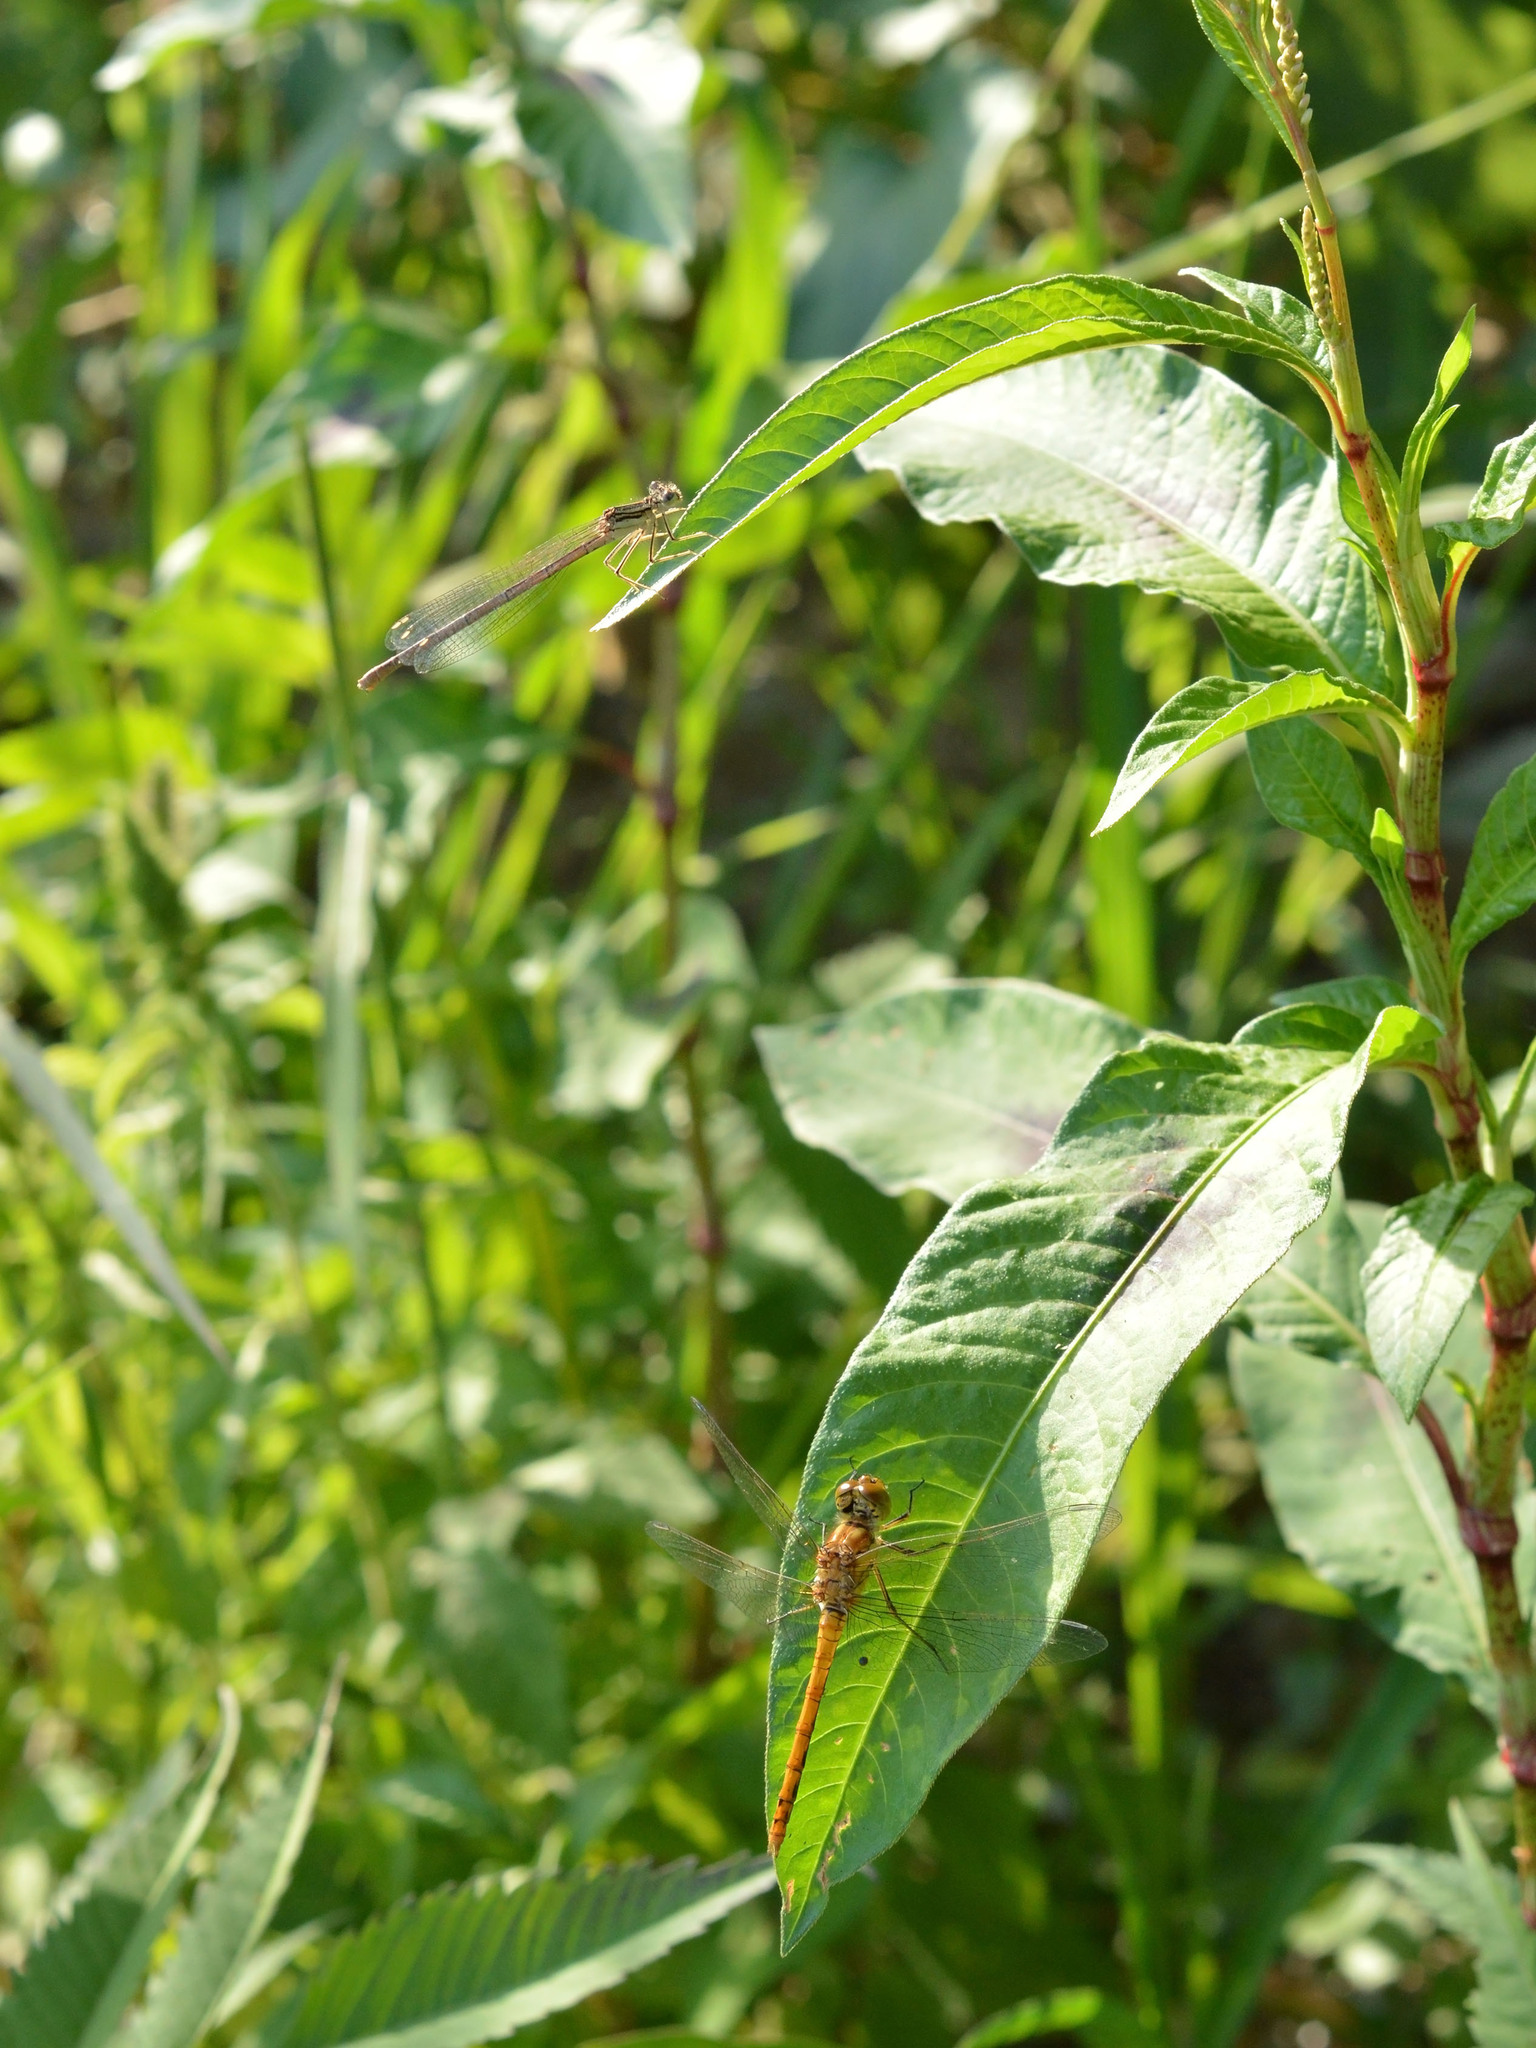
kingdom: Animalia
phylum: Arthropoda
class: Insecta
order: Odonata
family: Platycnemididae
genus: Platycnemis
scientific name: Platycnemis pennipes
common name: White-legged damselfly
